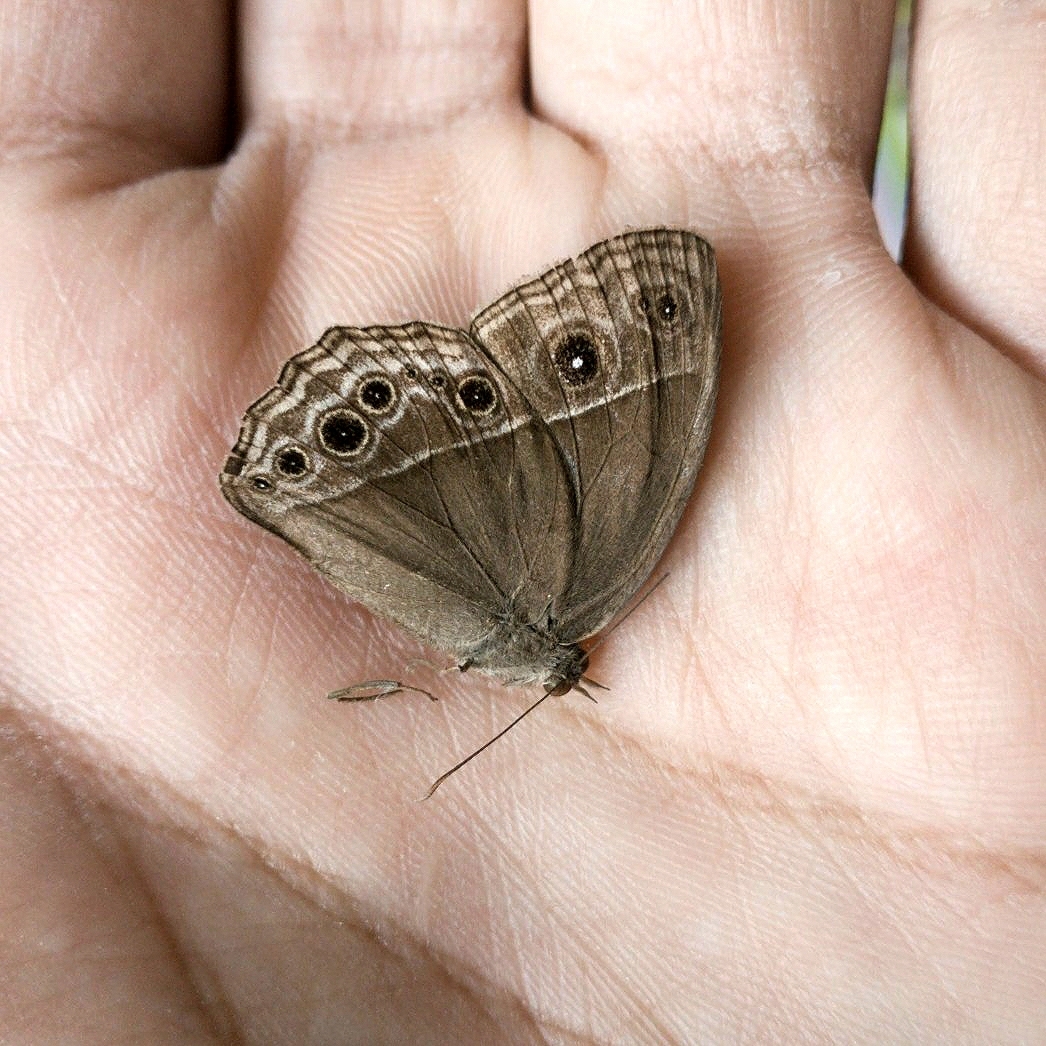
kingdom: Animalia
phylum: Arthropoda
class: Insecta
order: Lepidoptera
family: Nymphalidae
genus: Mycalesis
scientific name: Mycalesis
